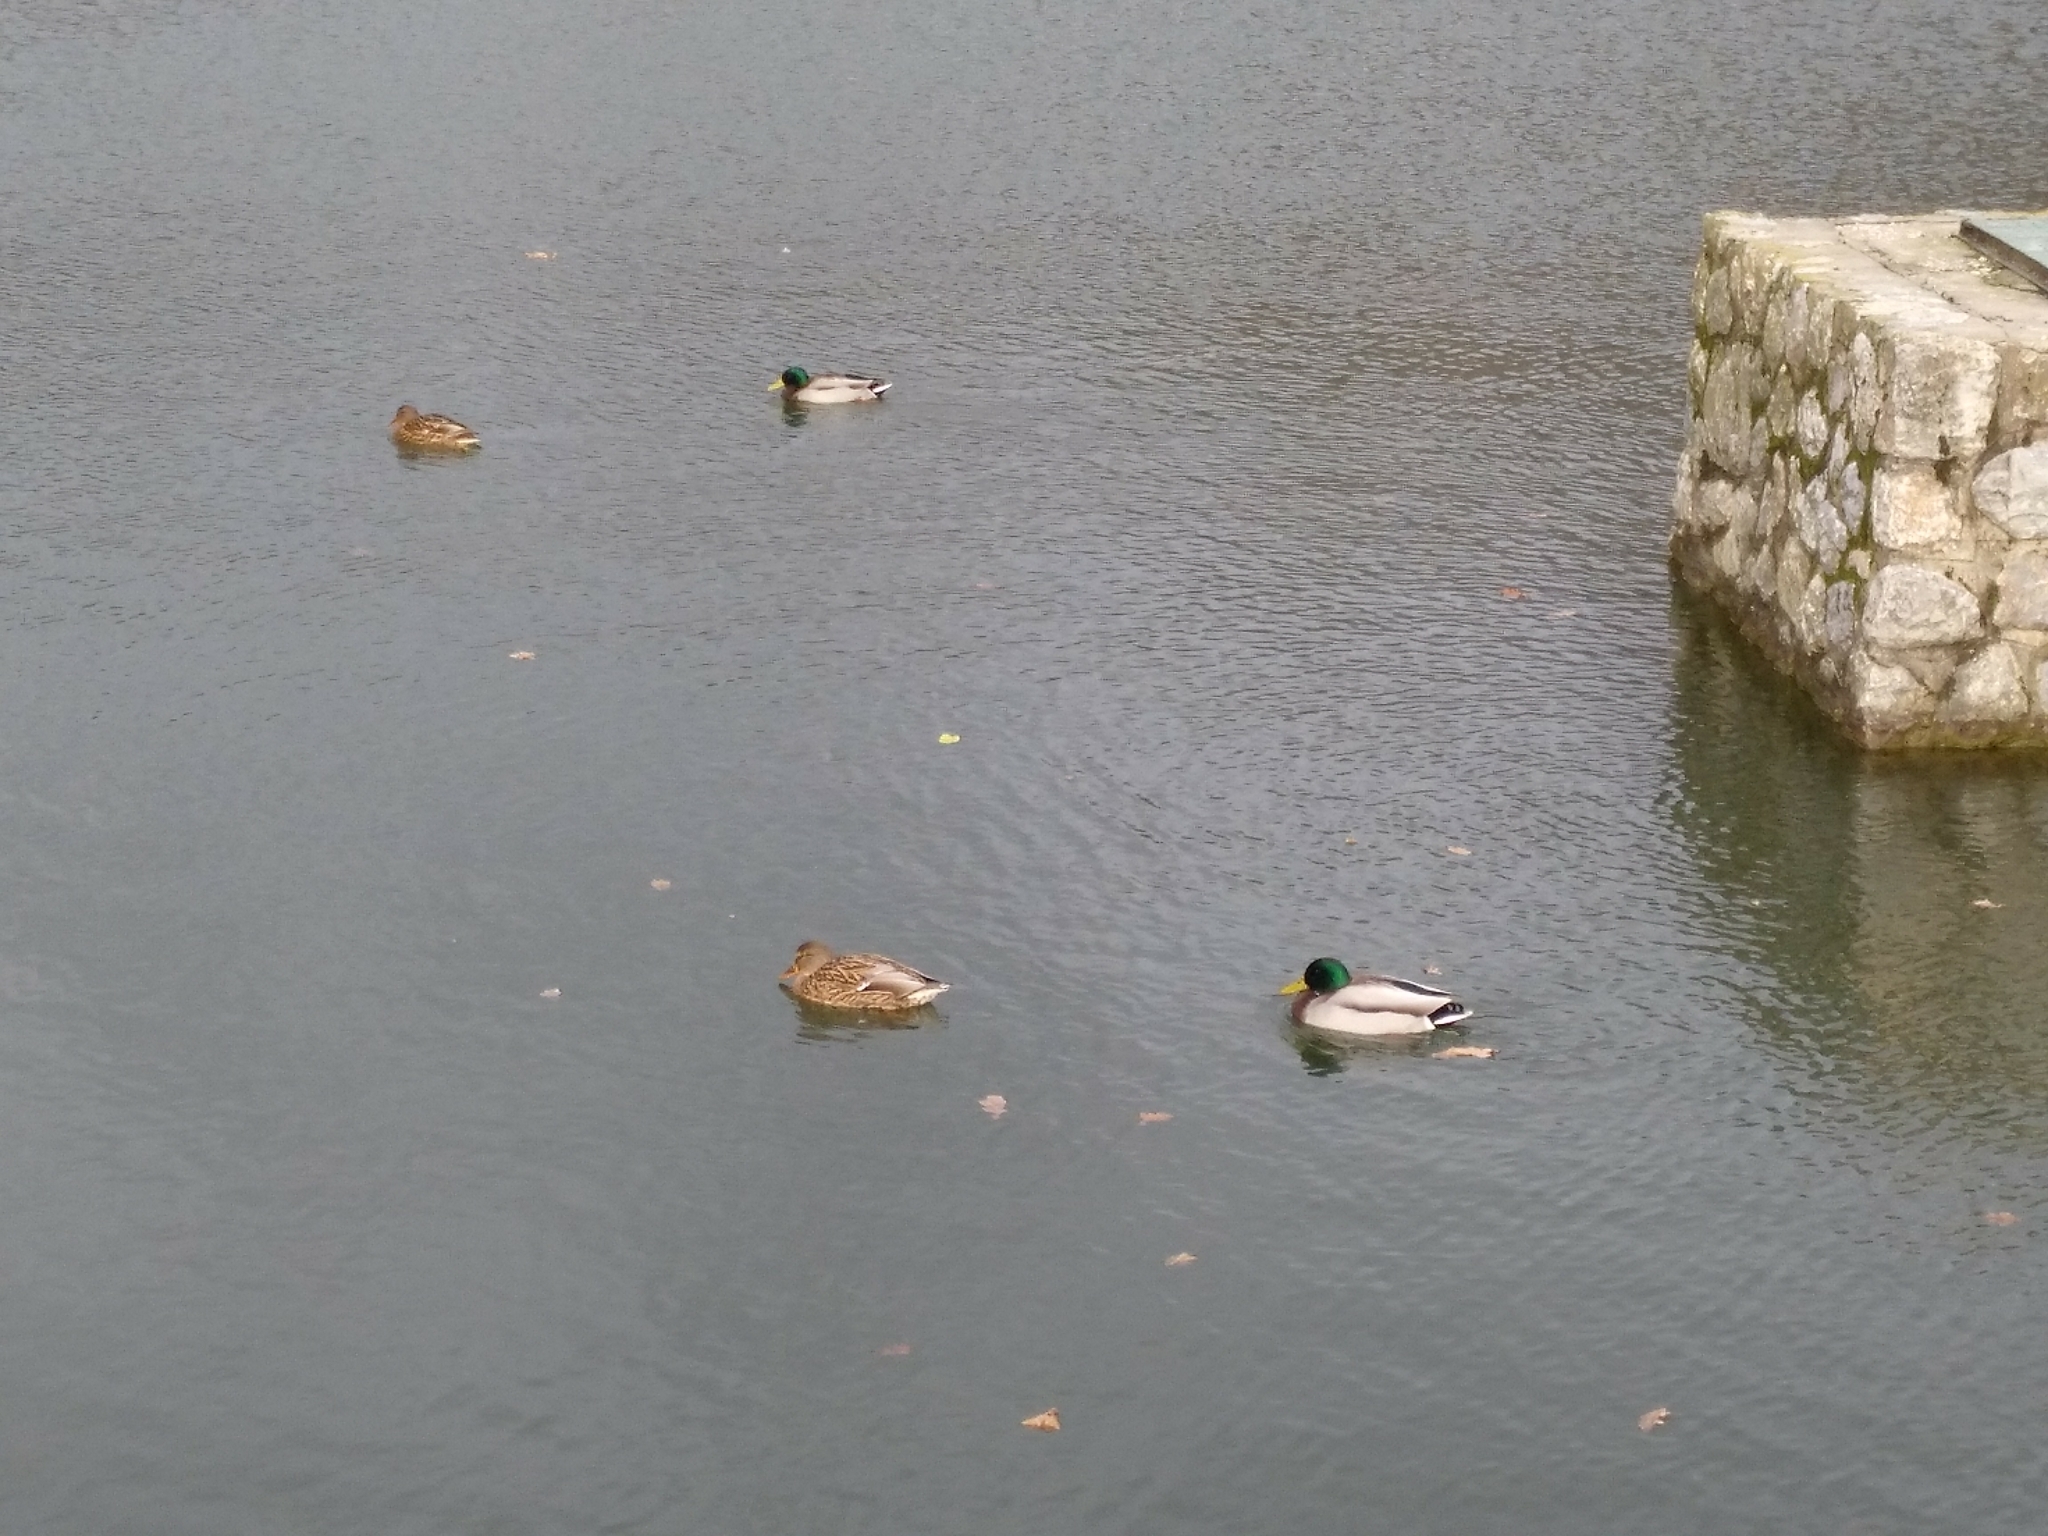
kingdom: Animalia
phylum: Chordata
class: Aves
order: Anseriformes
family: Anatidae
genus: Anas
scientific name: Anas platyrhynchos
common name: Mallard
